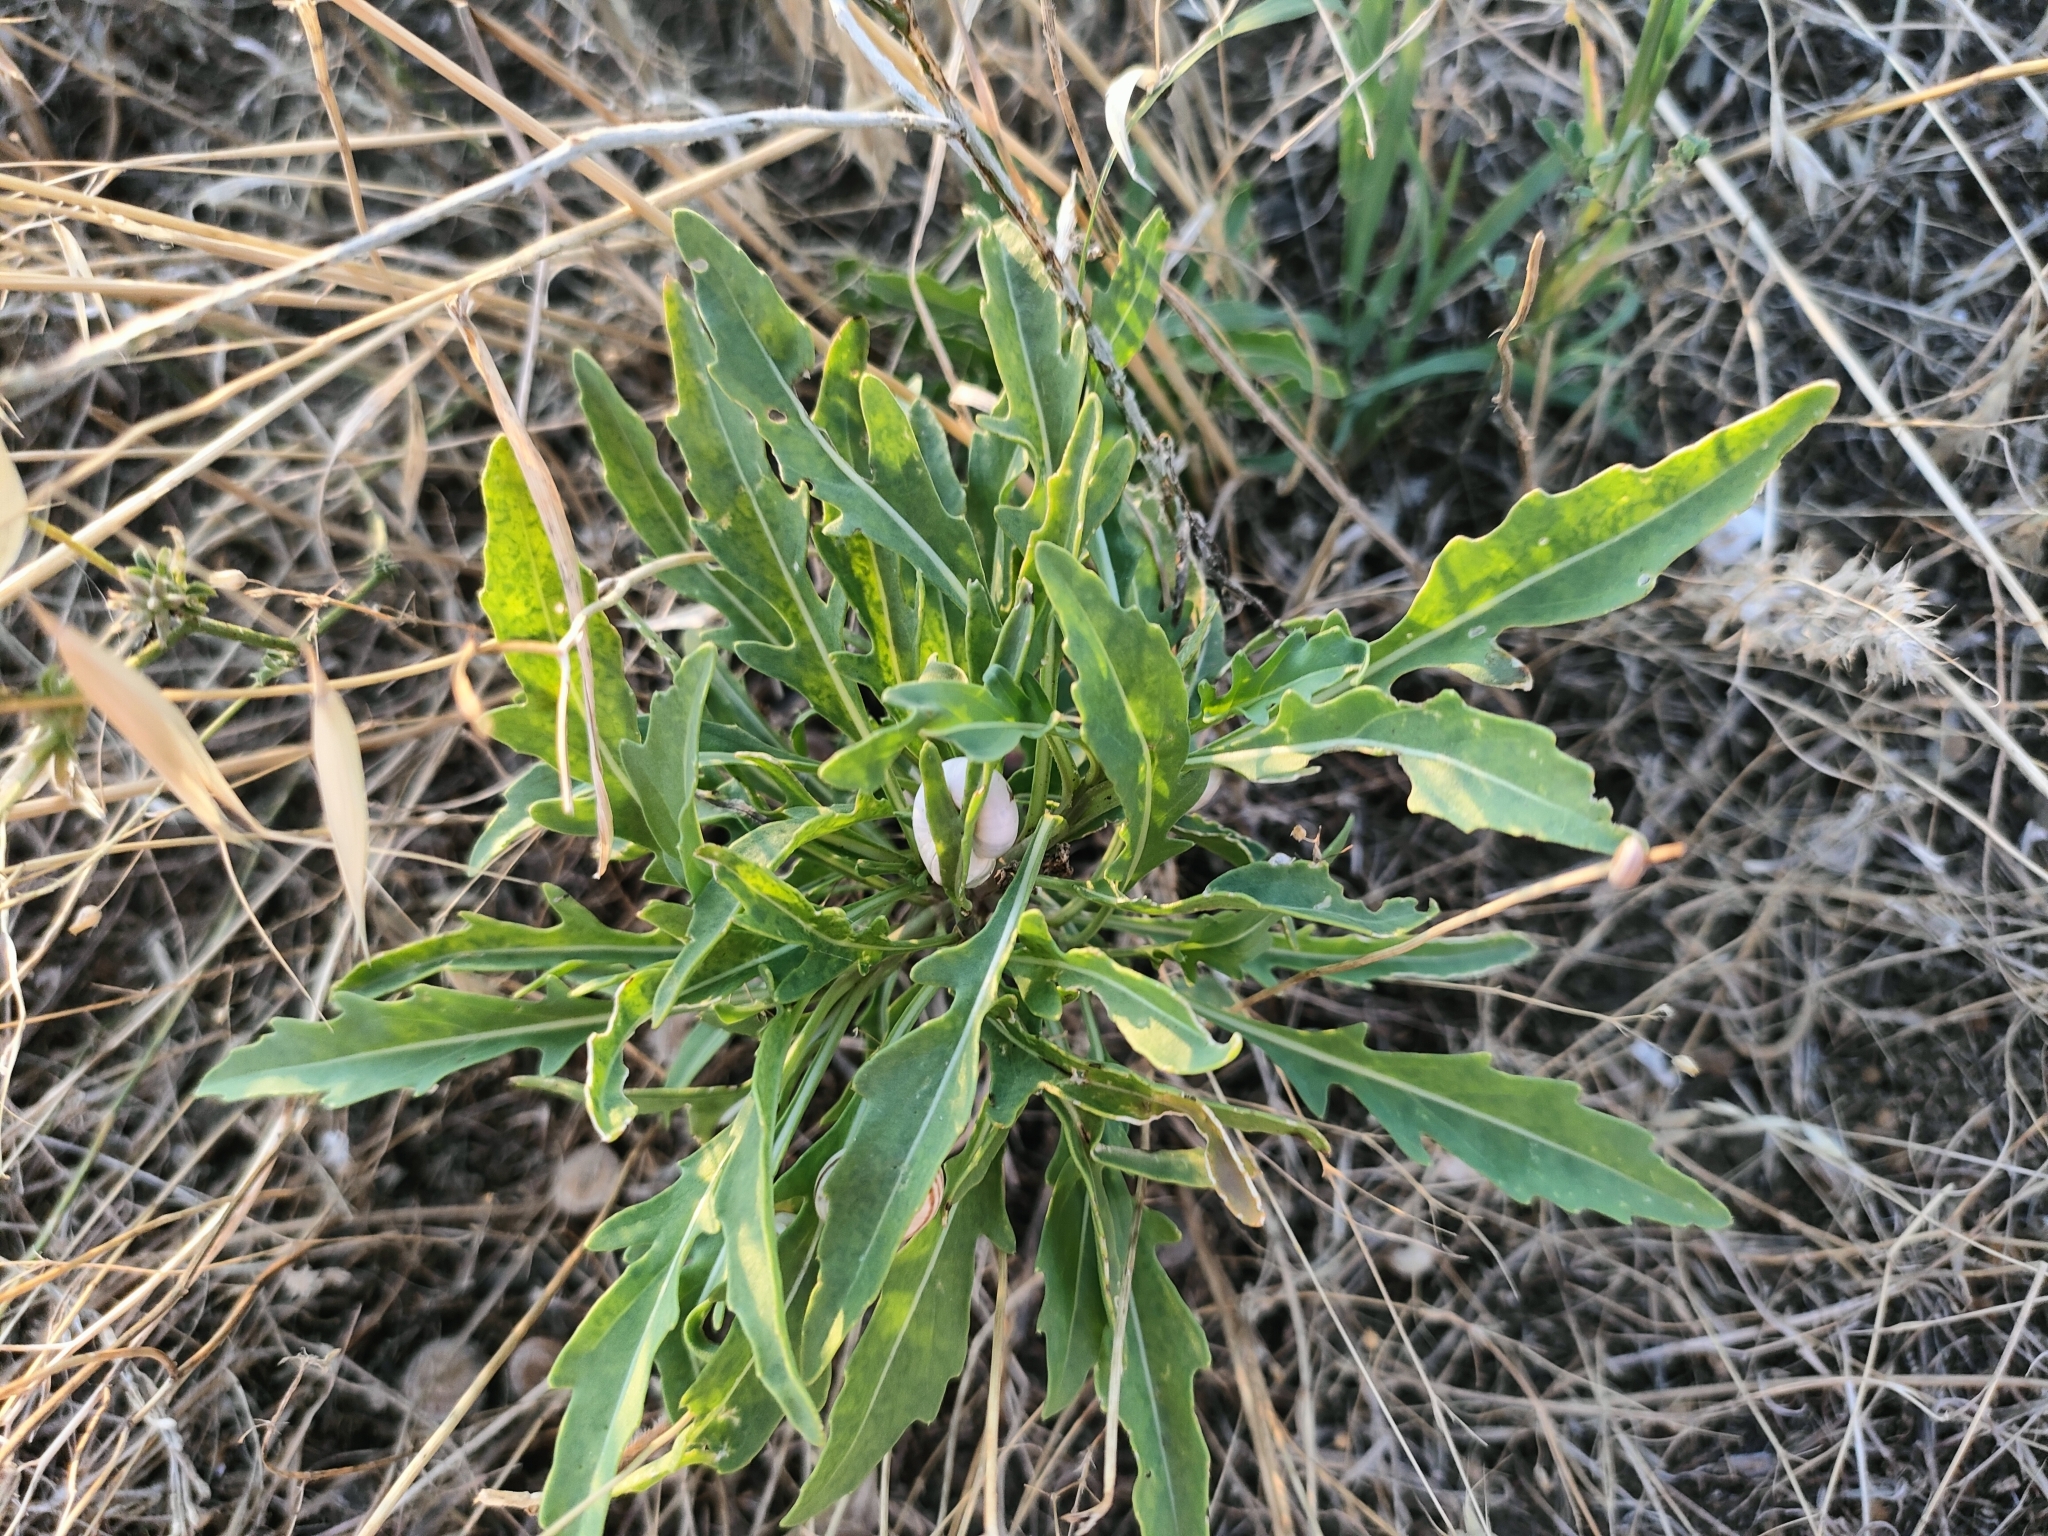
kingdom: Plantae
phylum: Tracheophyta
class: Magnoliopsida
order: Asterales
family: Asteraceae
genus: Xeranthemum
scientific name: Xeranthemum annuum
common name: Immortelle
